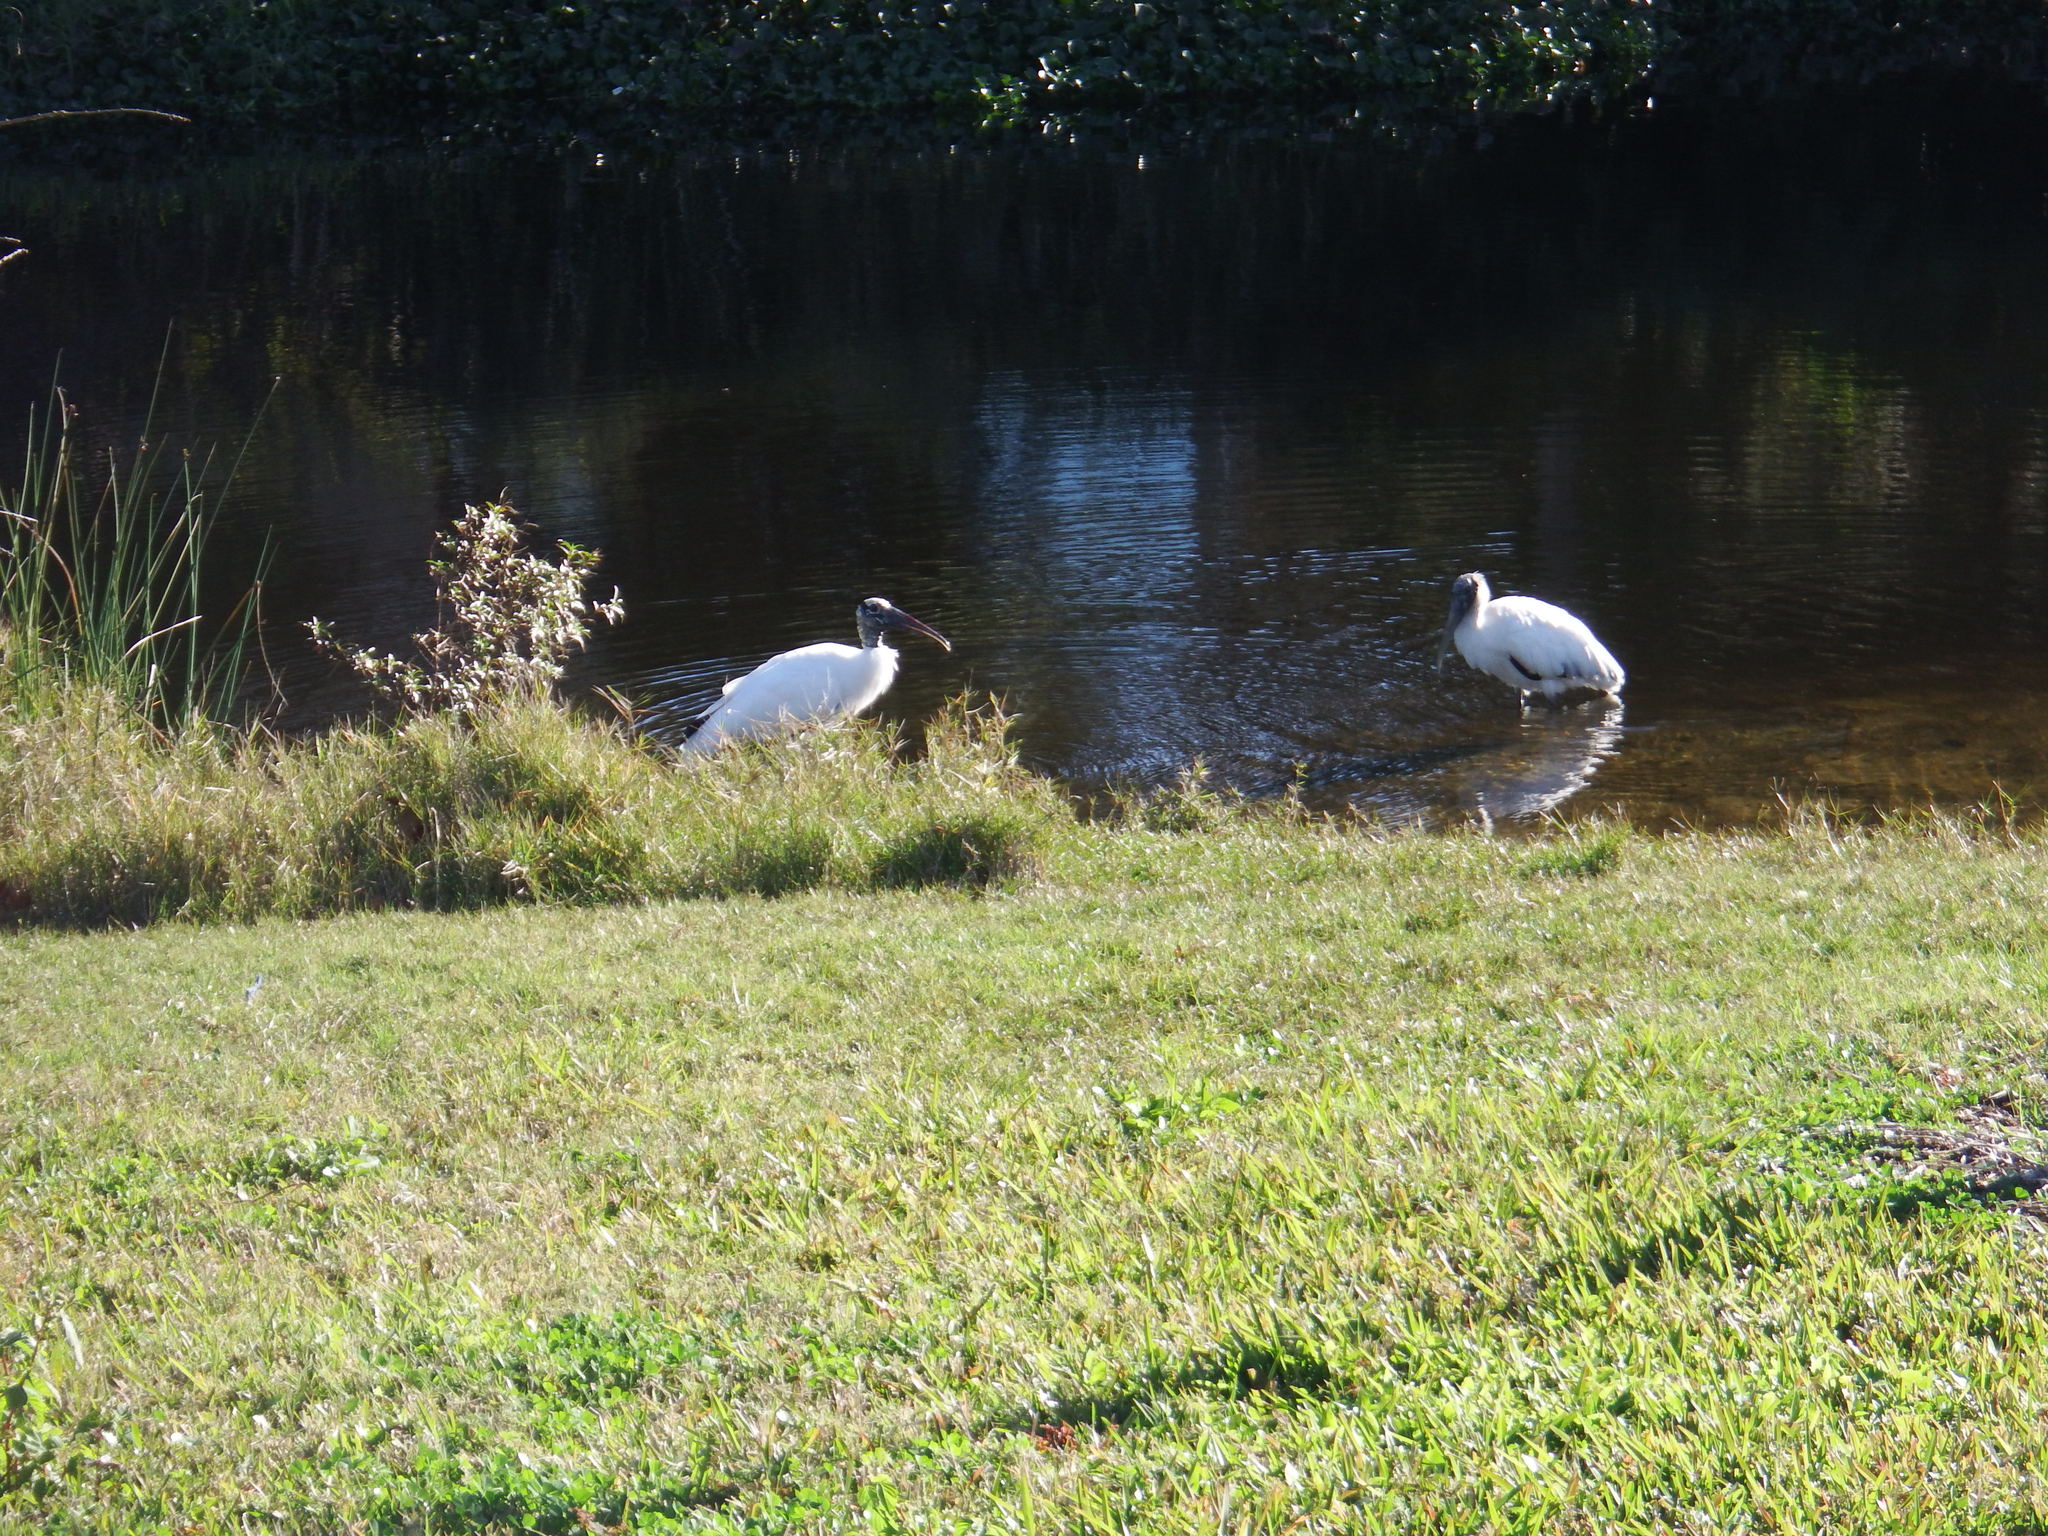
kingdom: Animalia
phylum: Chordata
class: Aves
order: Ciconiiformes
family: Ciconiidae
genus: Mycteria
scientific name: Mycteria americana
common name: Wood stork
